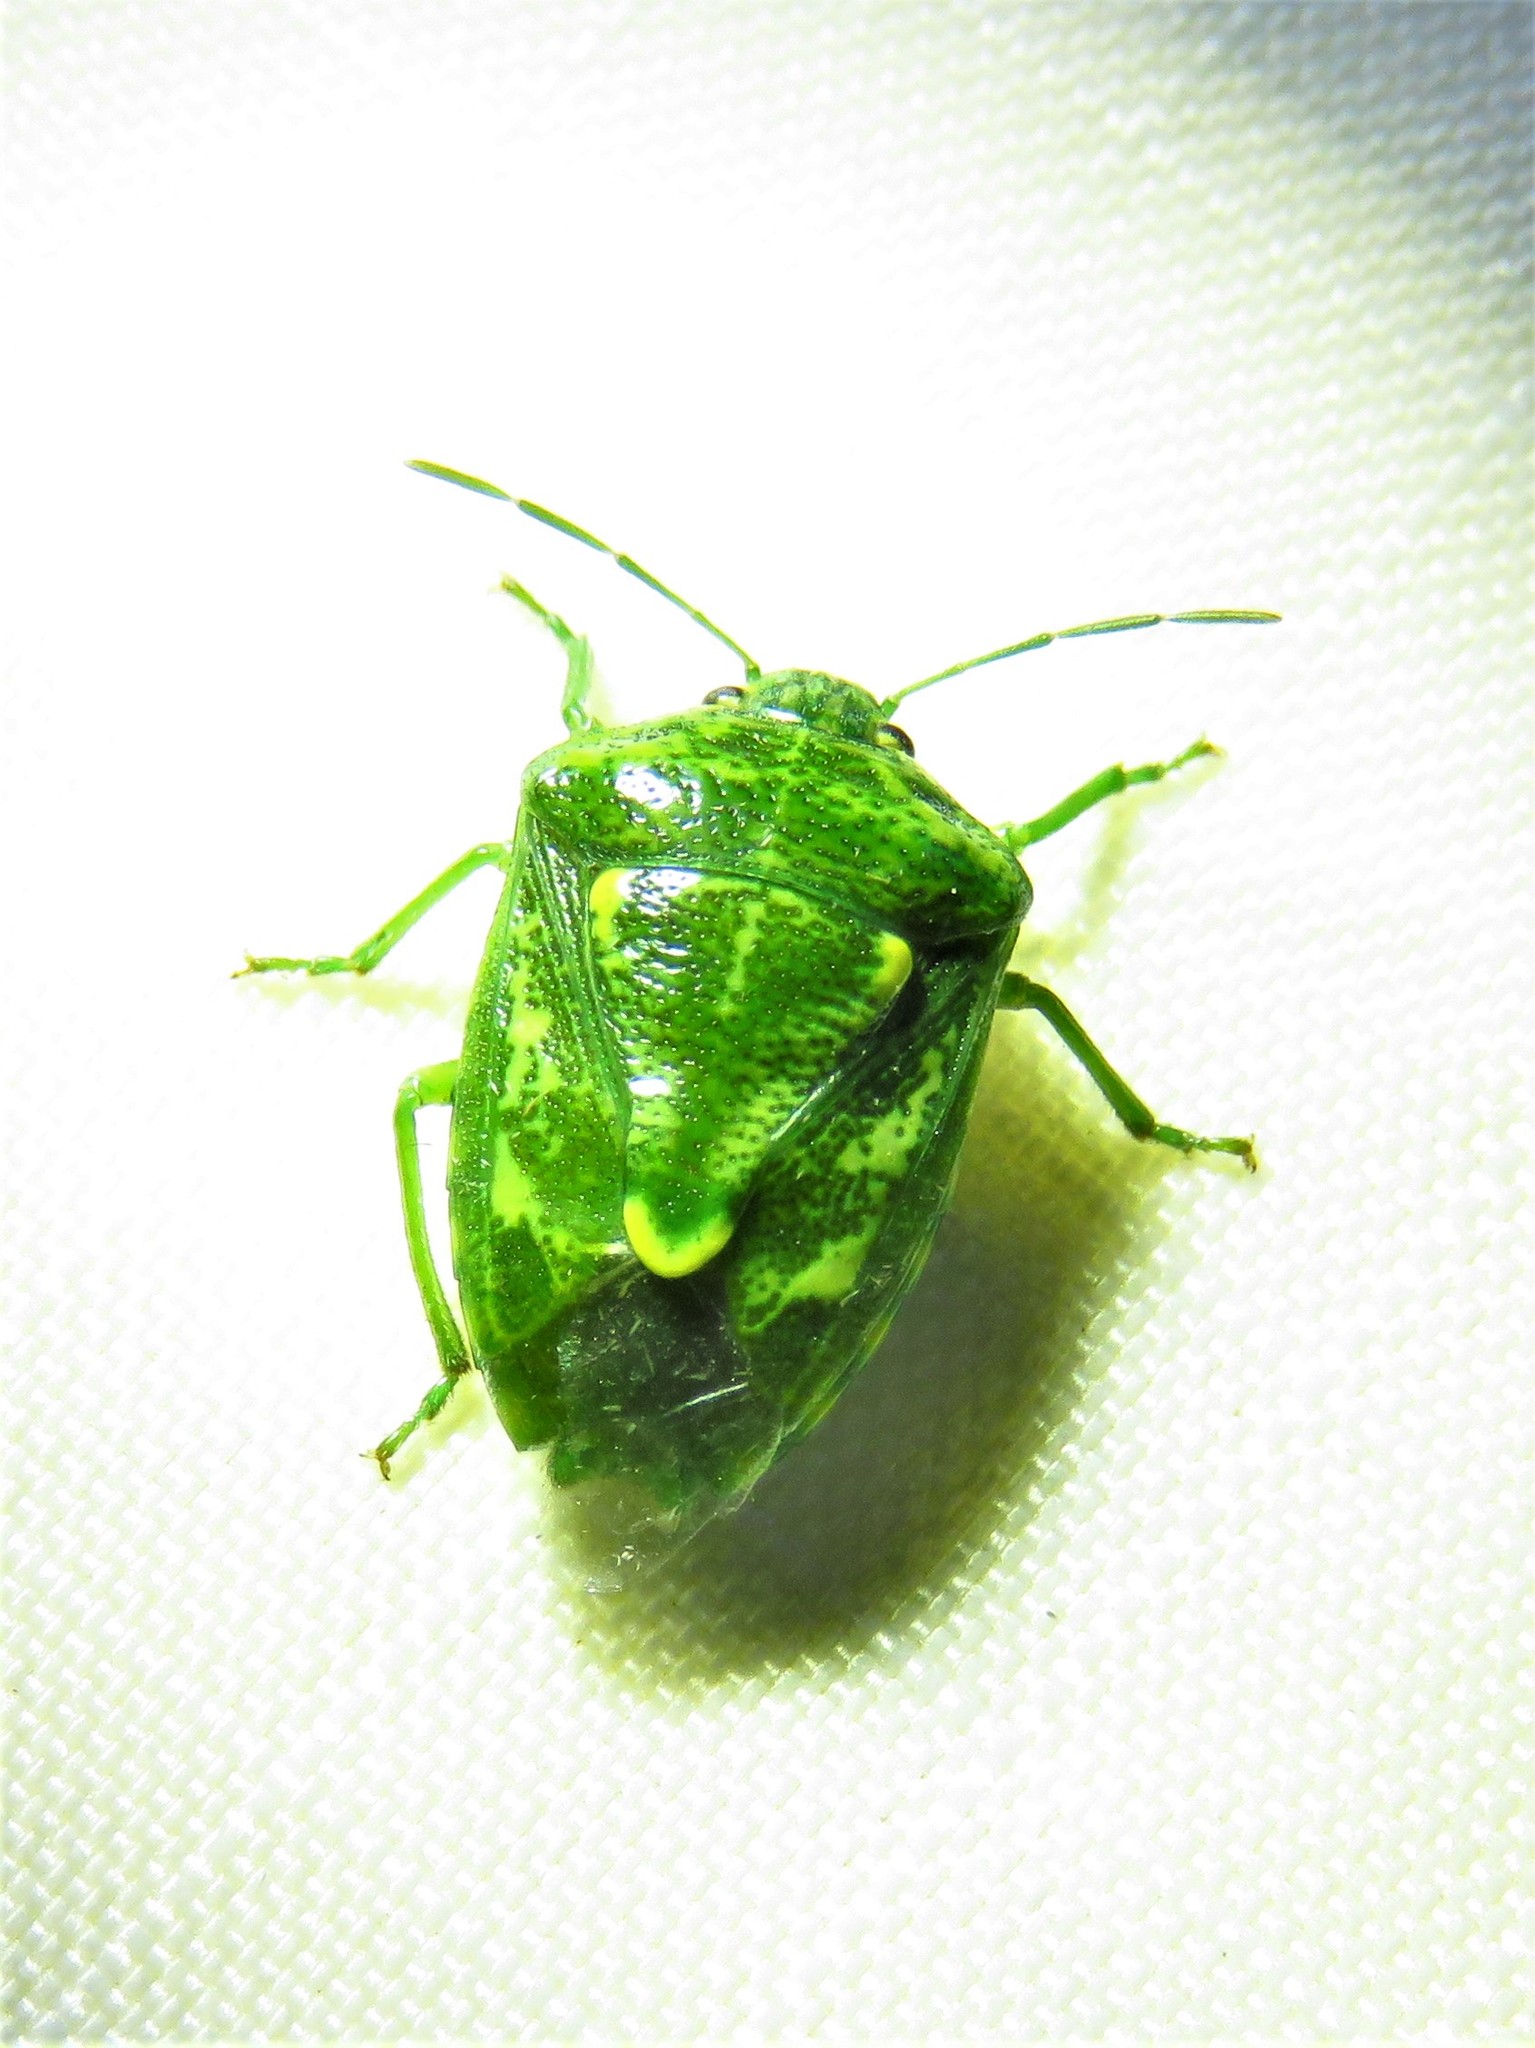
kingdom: Animalia
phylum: Arthropoda
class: Insecta
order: Hemiptera
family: Pentatomidae
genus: Banasa
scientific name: Banasa euchlora
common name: Cedar berry bug
